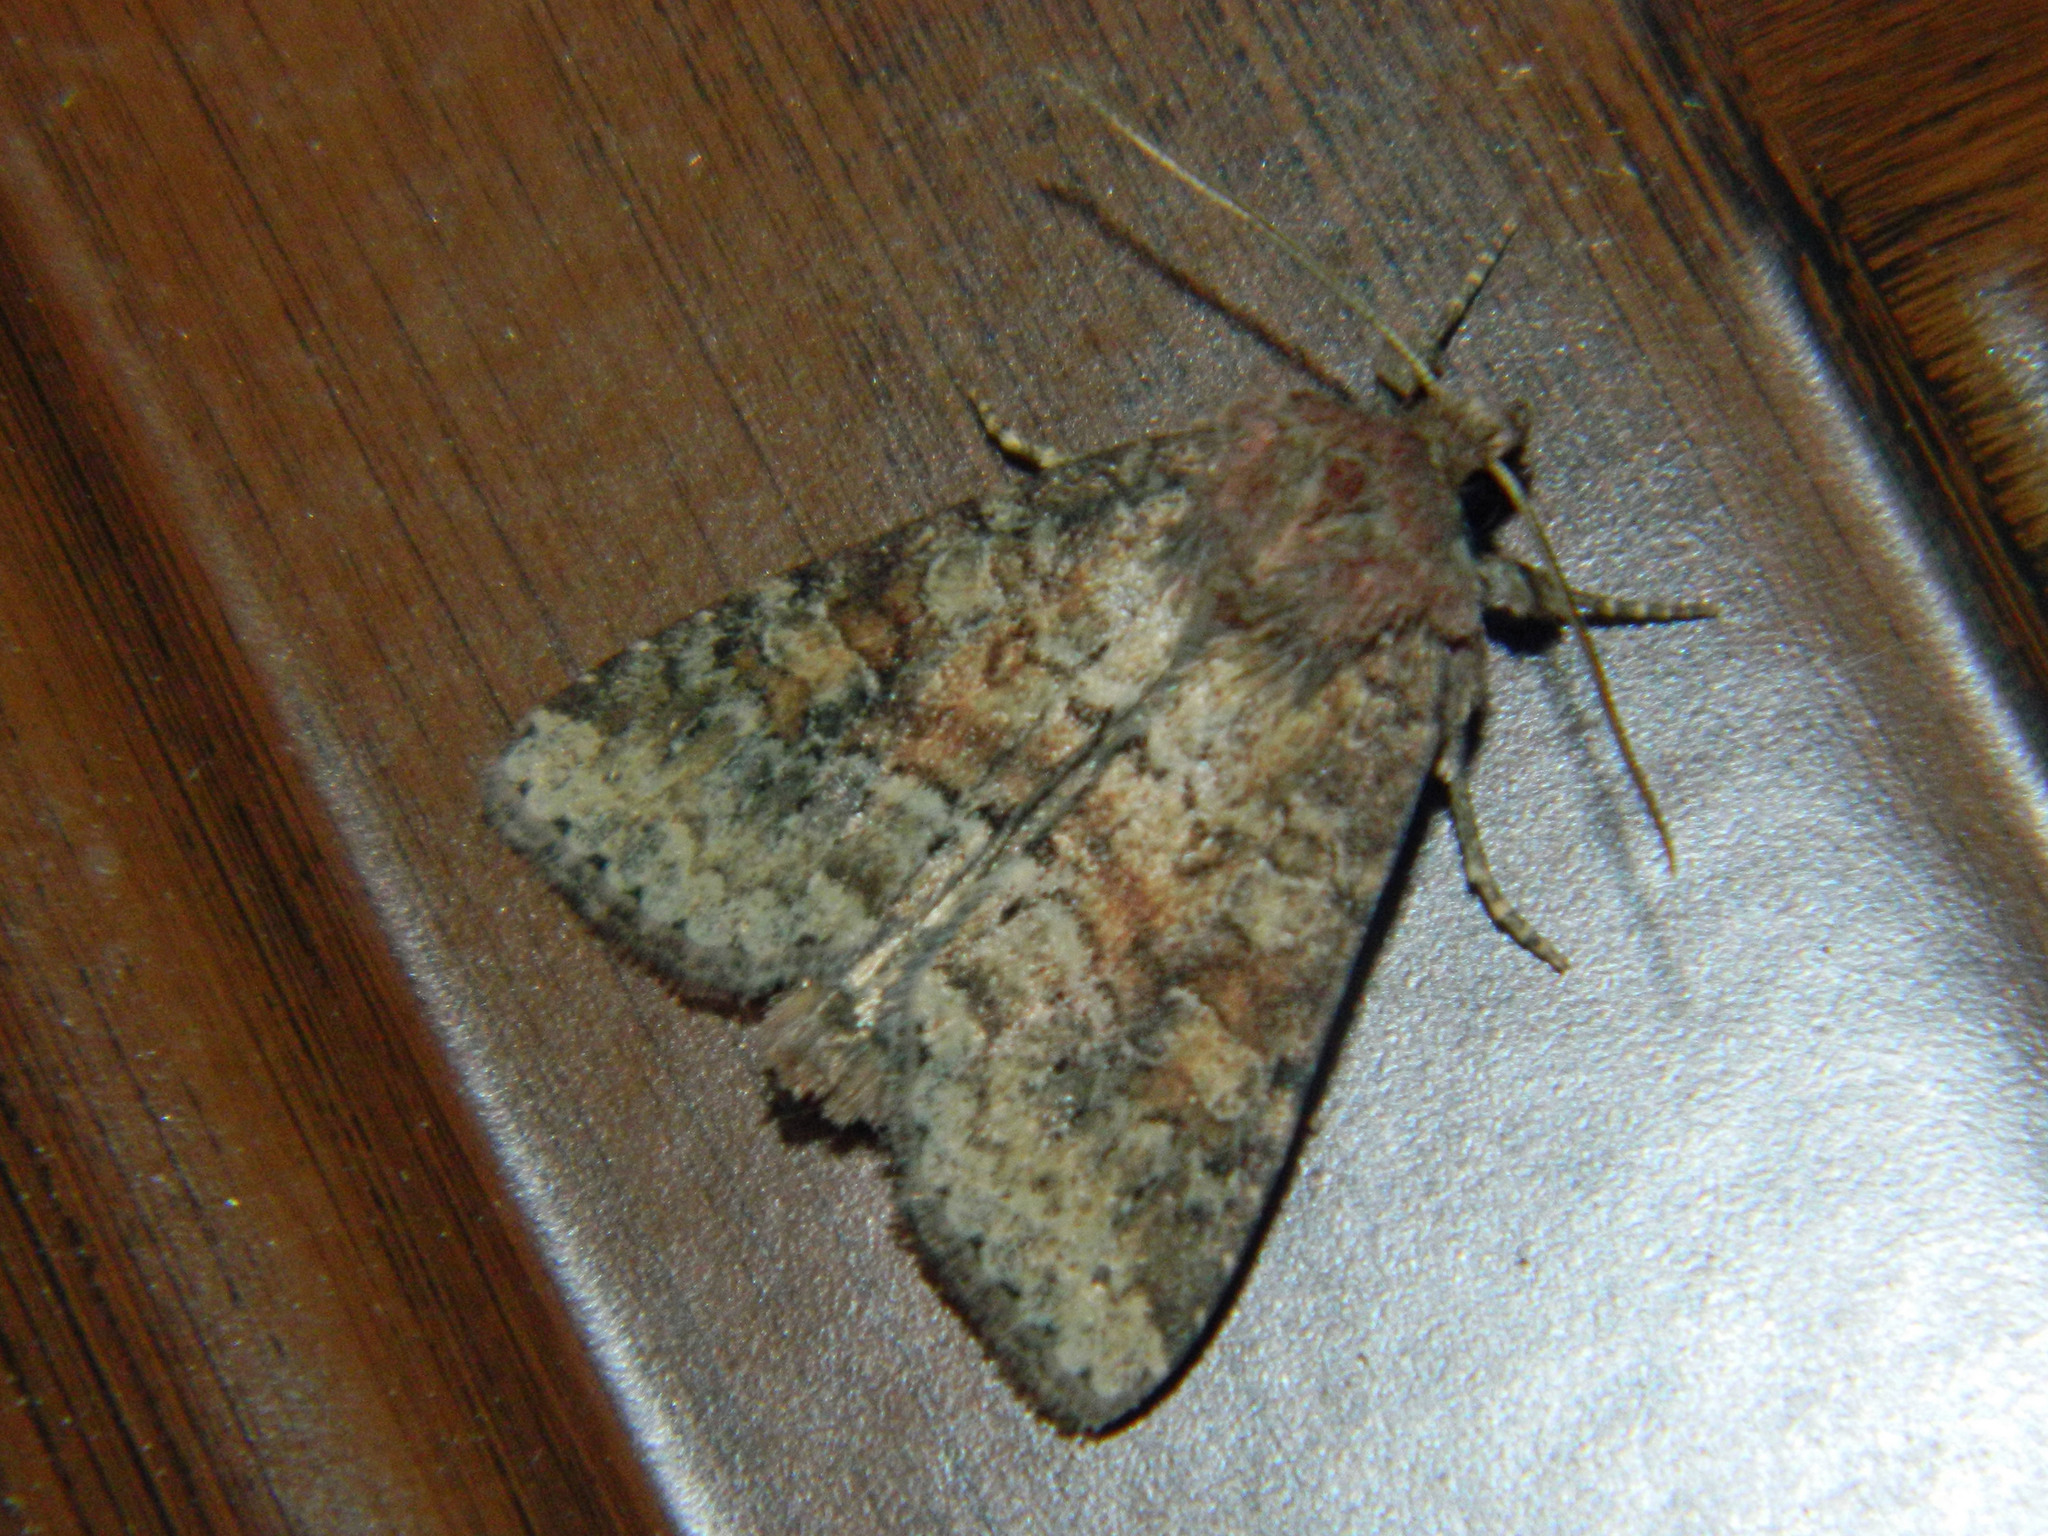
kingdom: Animalia
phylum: Arthropoda
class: Insecta
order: Lepidoptera
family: Noctuidae
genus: Parastichtis
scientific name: Parastichtis suspecta
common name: Suspected
